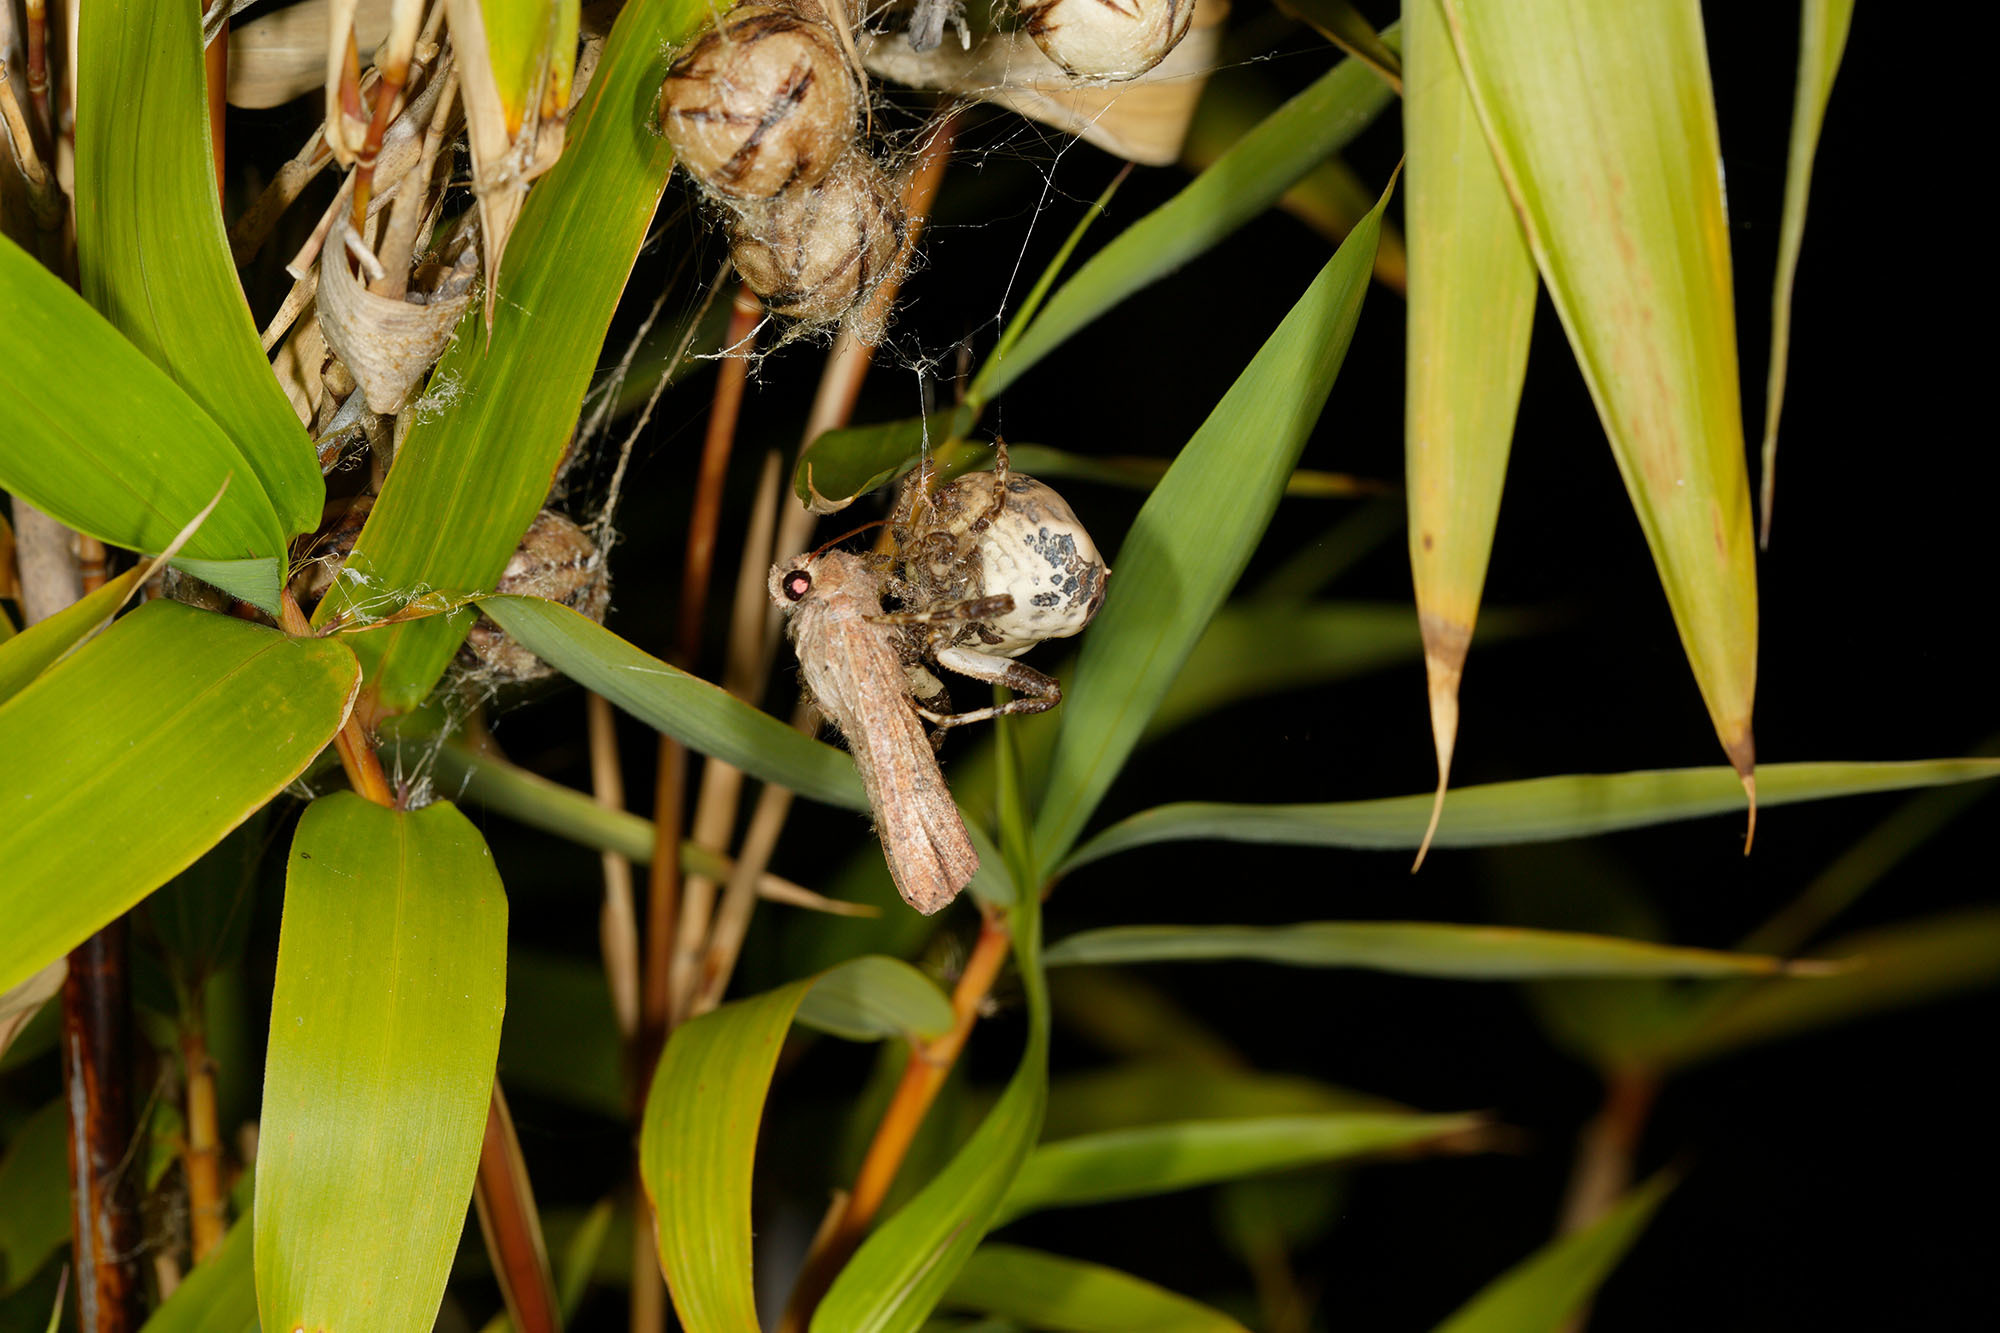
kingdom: Animalia
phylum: Arthropoda
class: Arachnida
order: Araneae
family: Araneidae
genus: Celaenia
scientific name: Celaenia excavata
